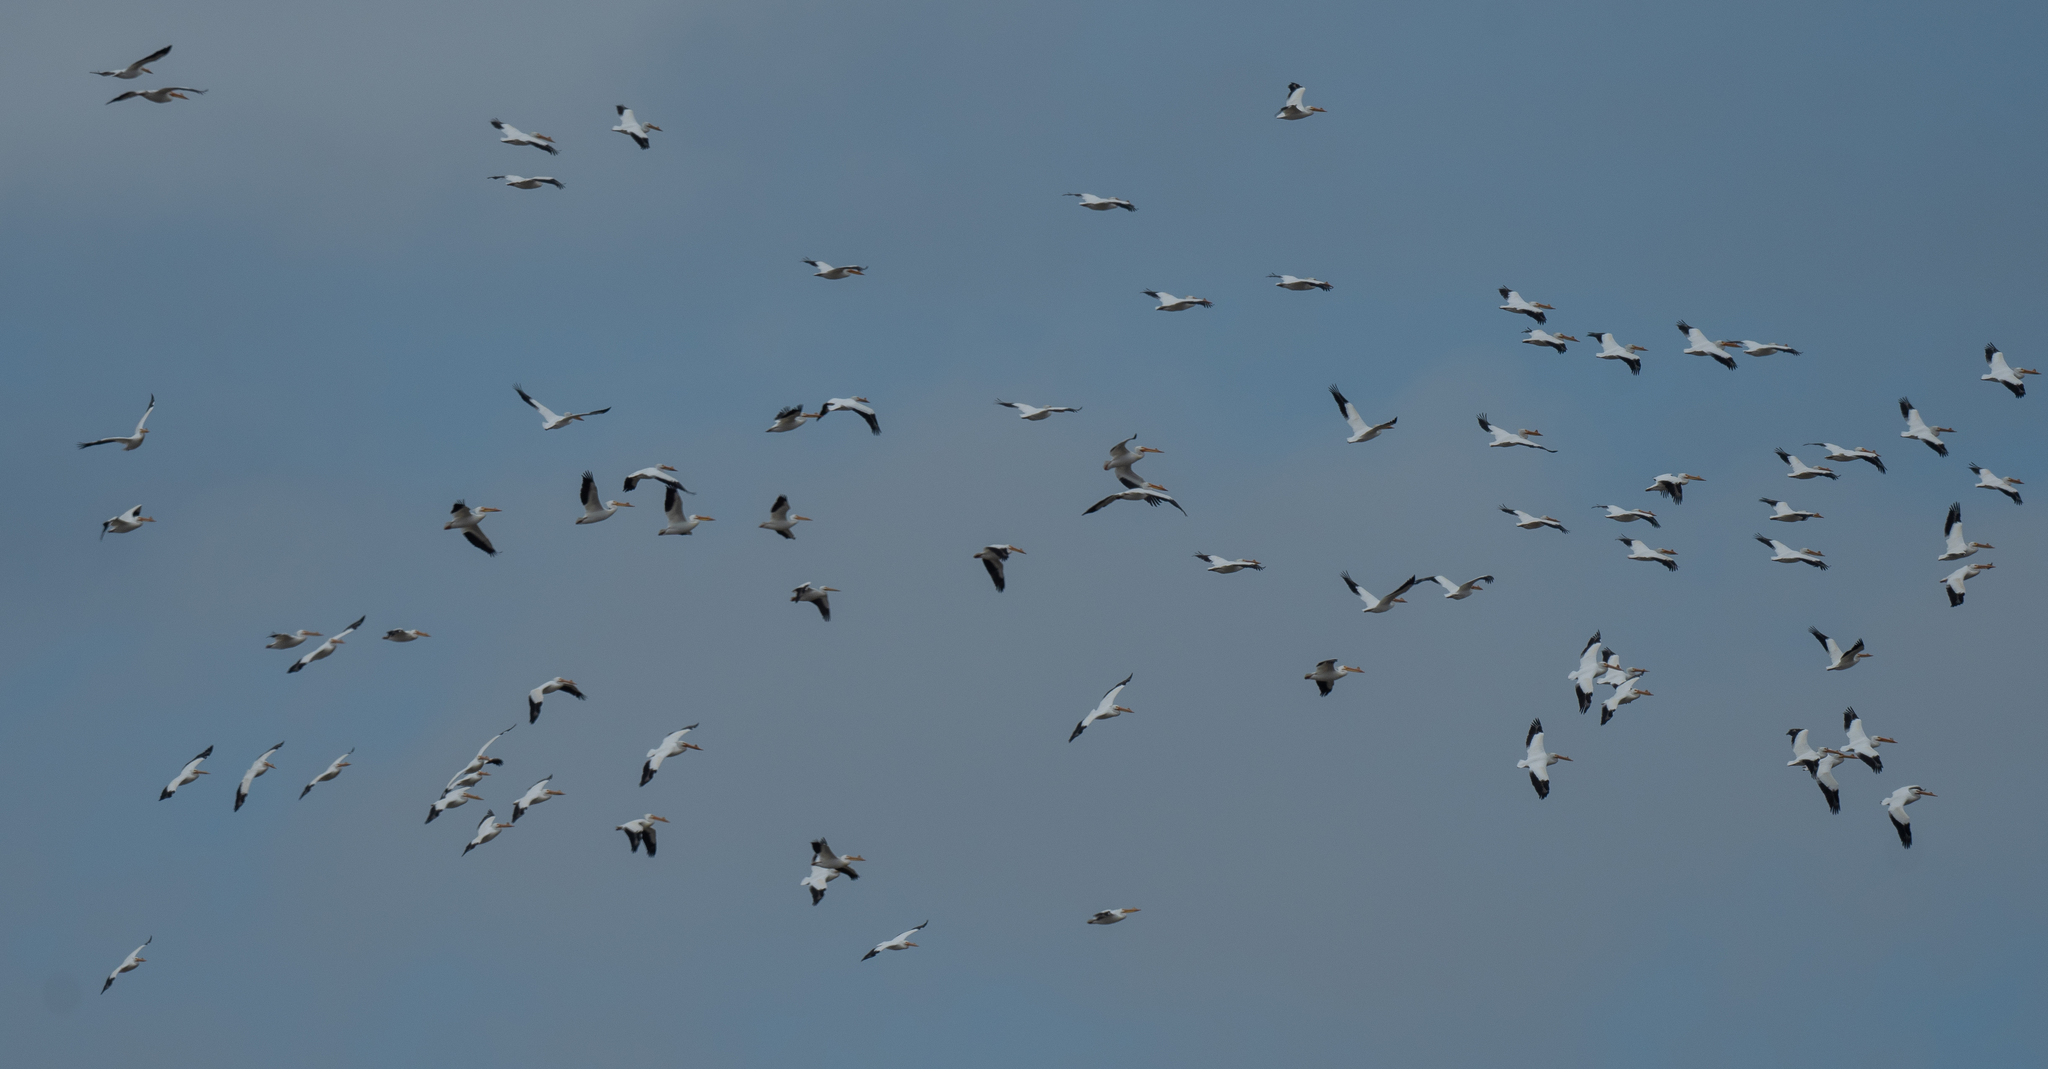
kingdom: Animalia
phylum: Chordata
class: Aves
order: Pelecaniformes
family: Pelecanidae
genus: Pelecanus
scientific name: Pelecanus erythrorhynchos
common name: American white pelican
